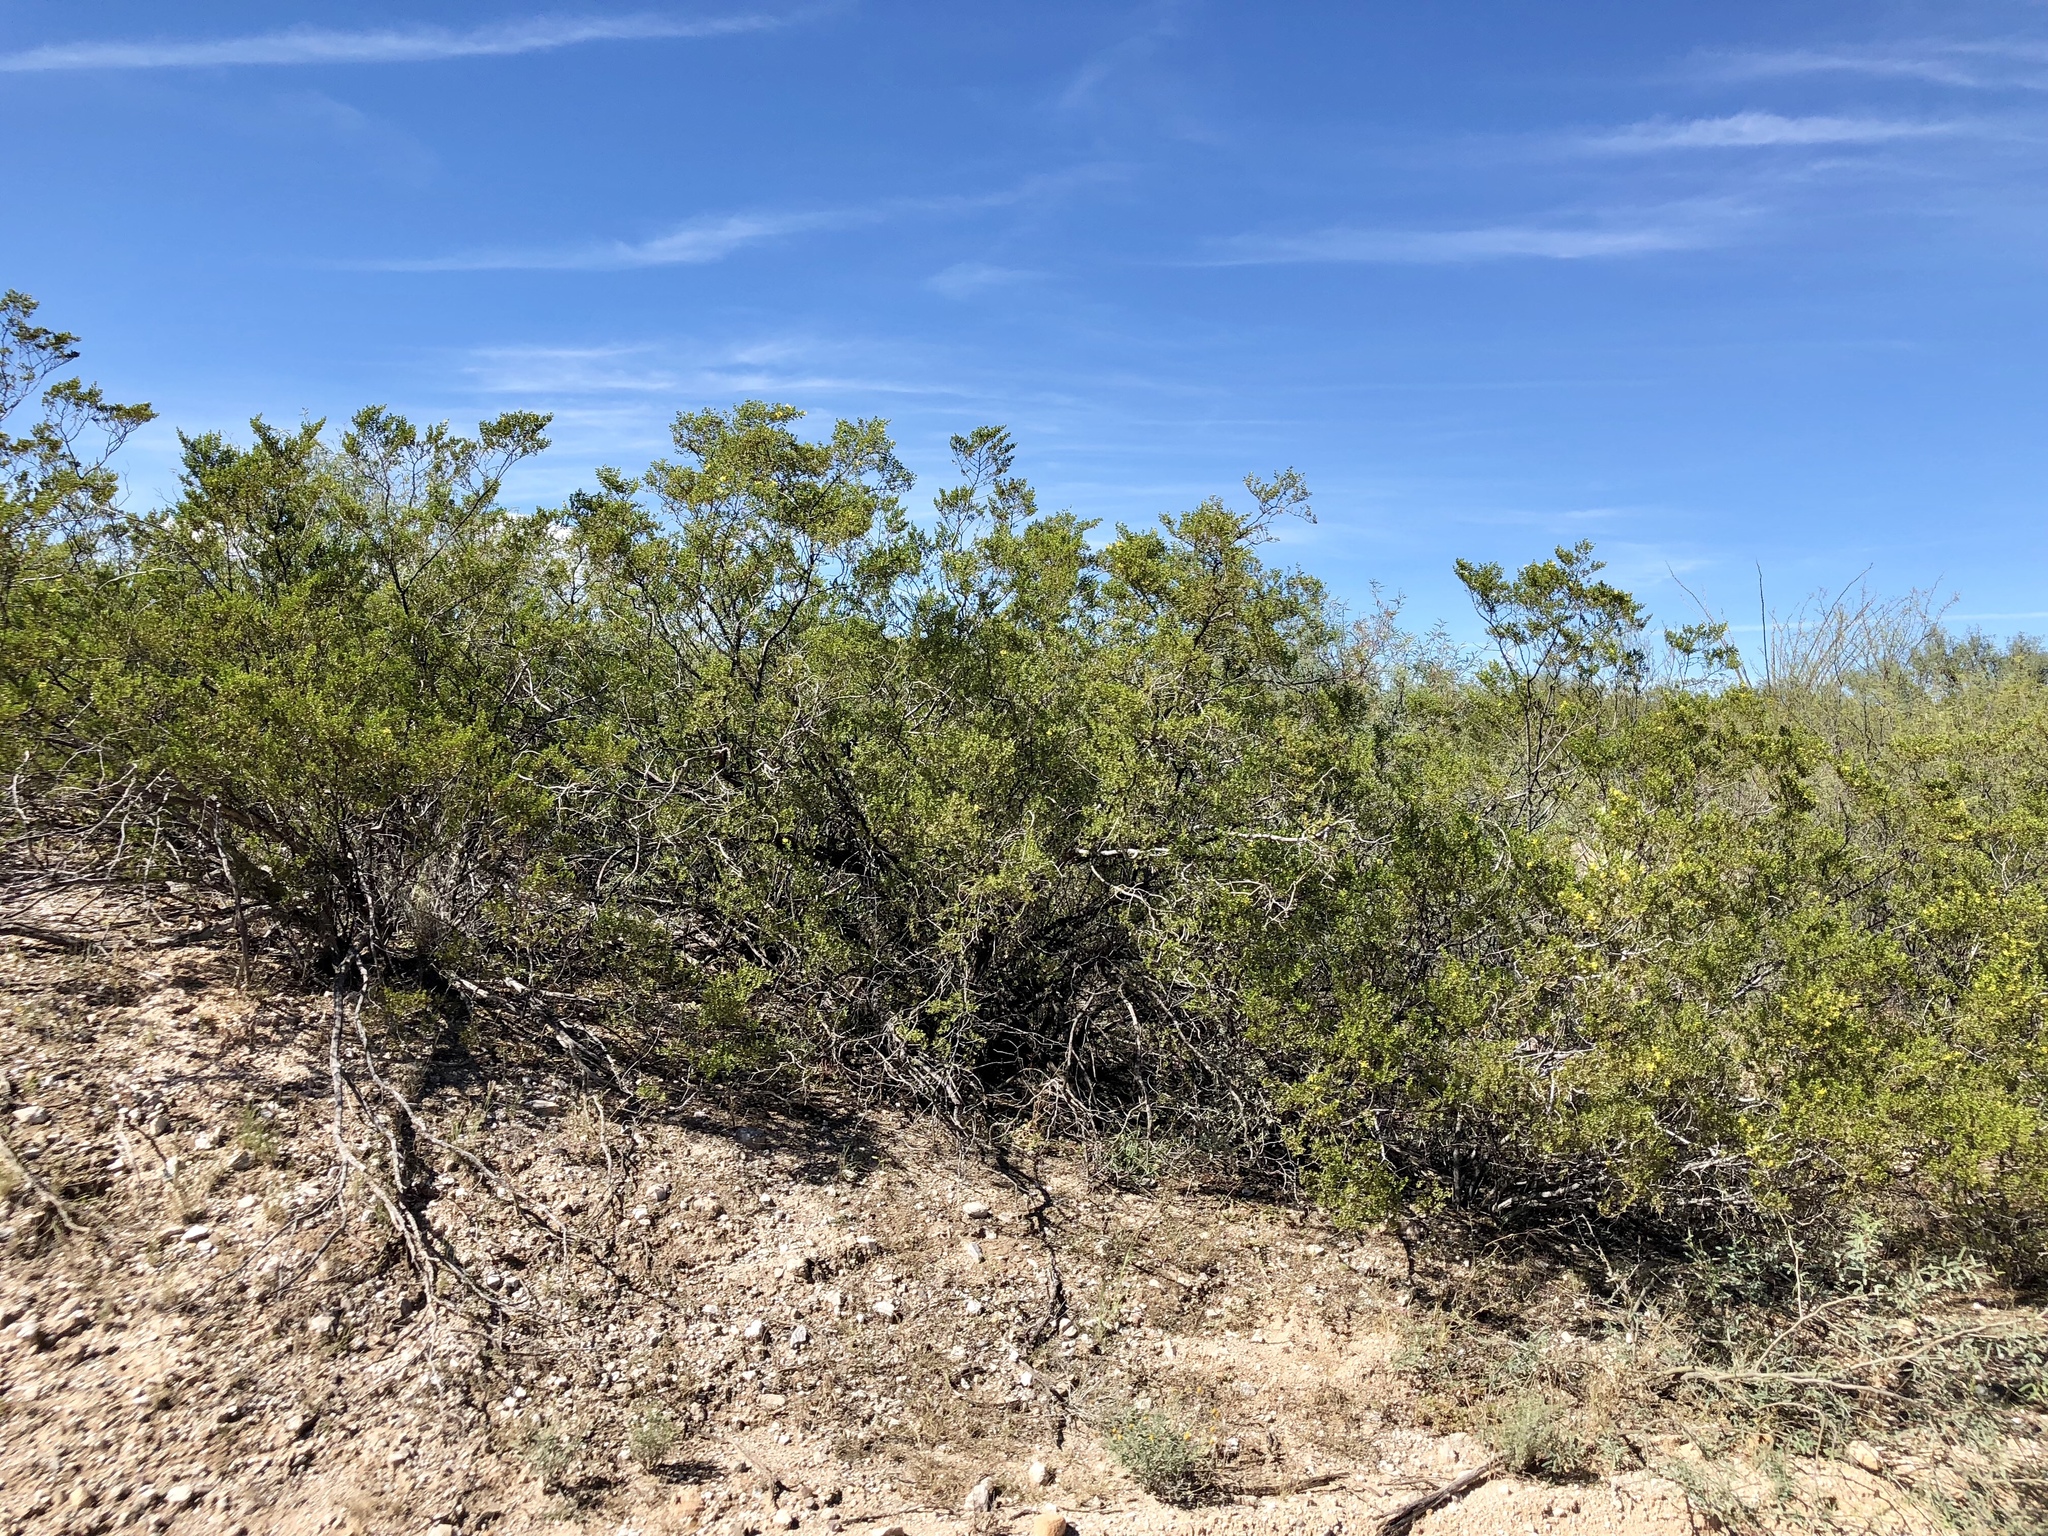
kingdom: Plantae
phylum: Tracheophyta
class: Magnoliopsida
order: Zygophyllales
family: Zygophyllaceae
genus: Larrea
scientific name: Larrea tridentata
